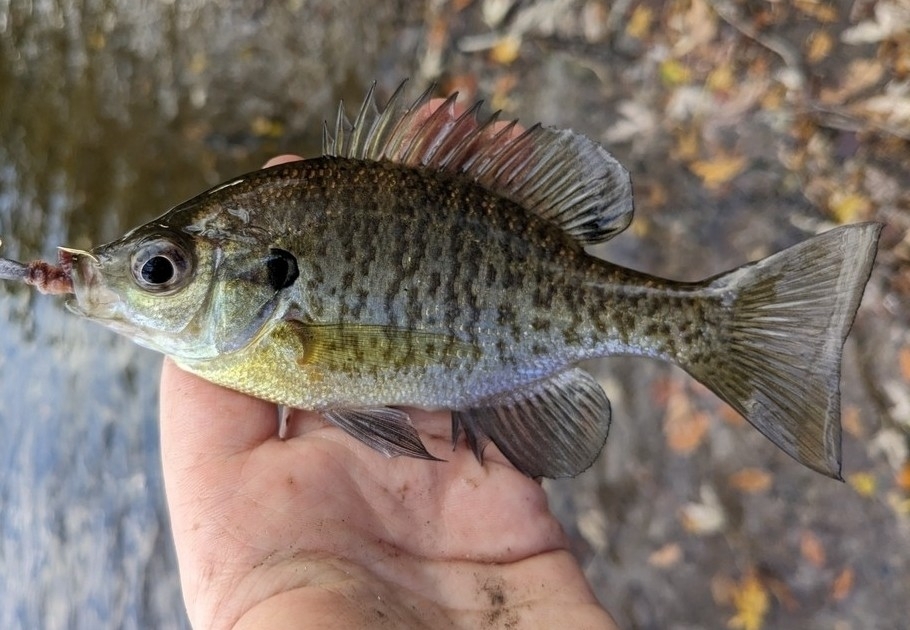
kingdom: Animalia
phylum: Chordata
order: Perciformes
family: Centrarchidae
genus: Lepomis
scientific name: Lepomis macrochirus
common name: Bluegill
